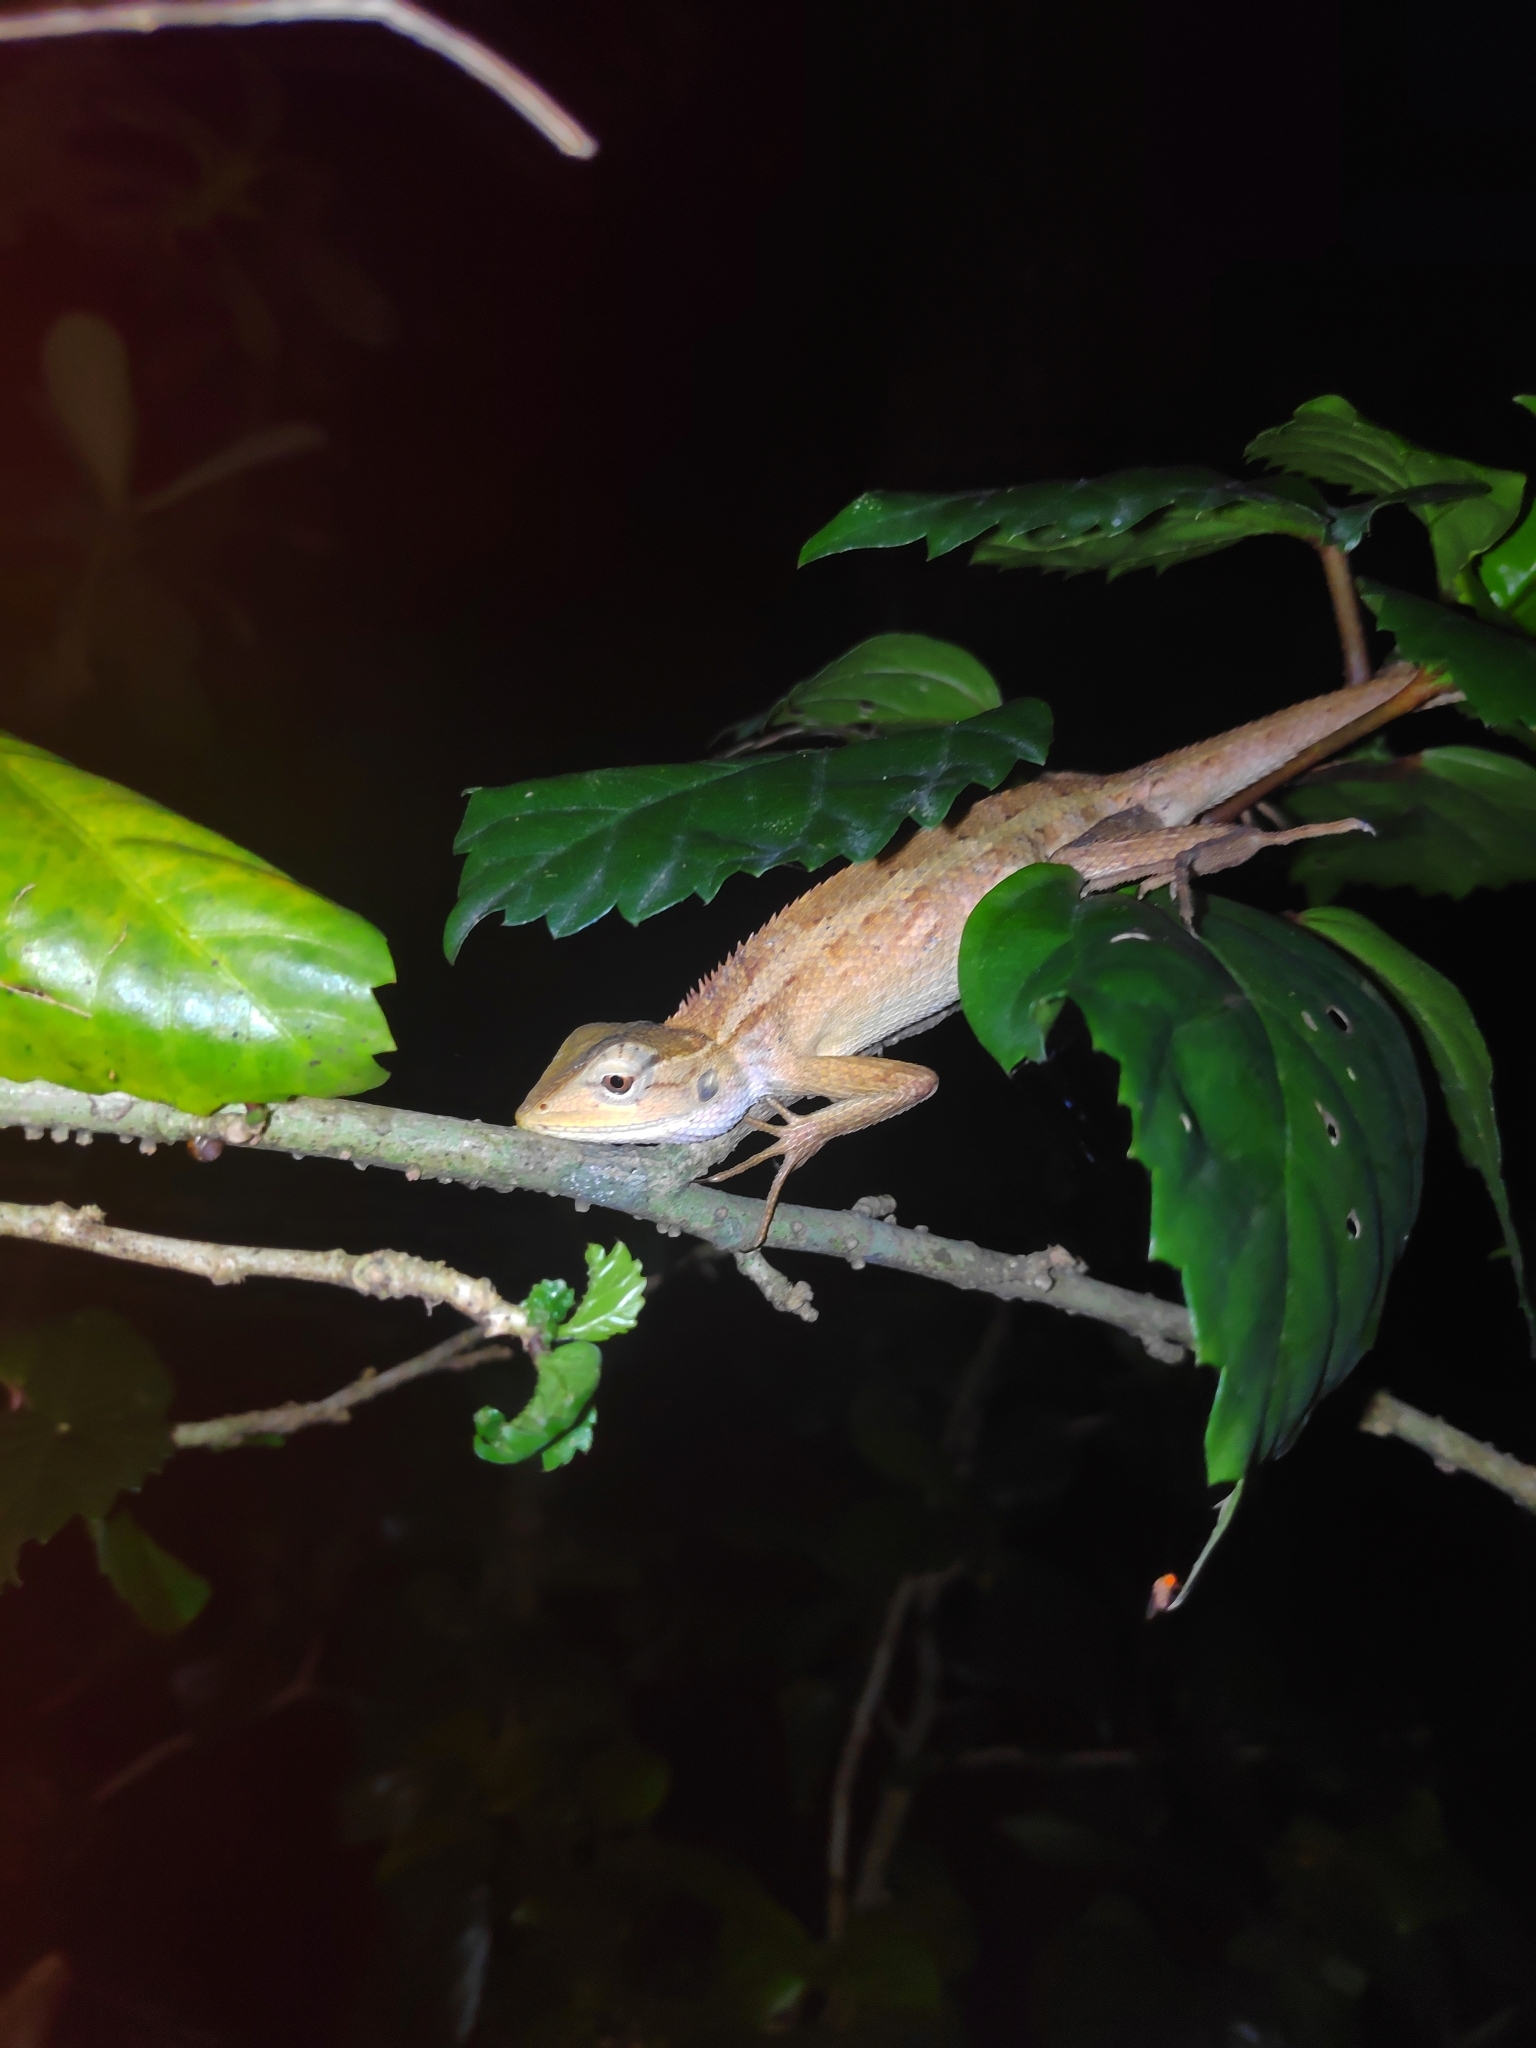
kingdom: Animalia
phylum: Chordata
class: Squamata
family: Agamidae
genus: Calotes
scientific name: Calotes versicolor
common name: Oriental garden lizard
